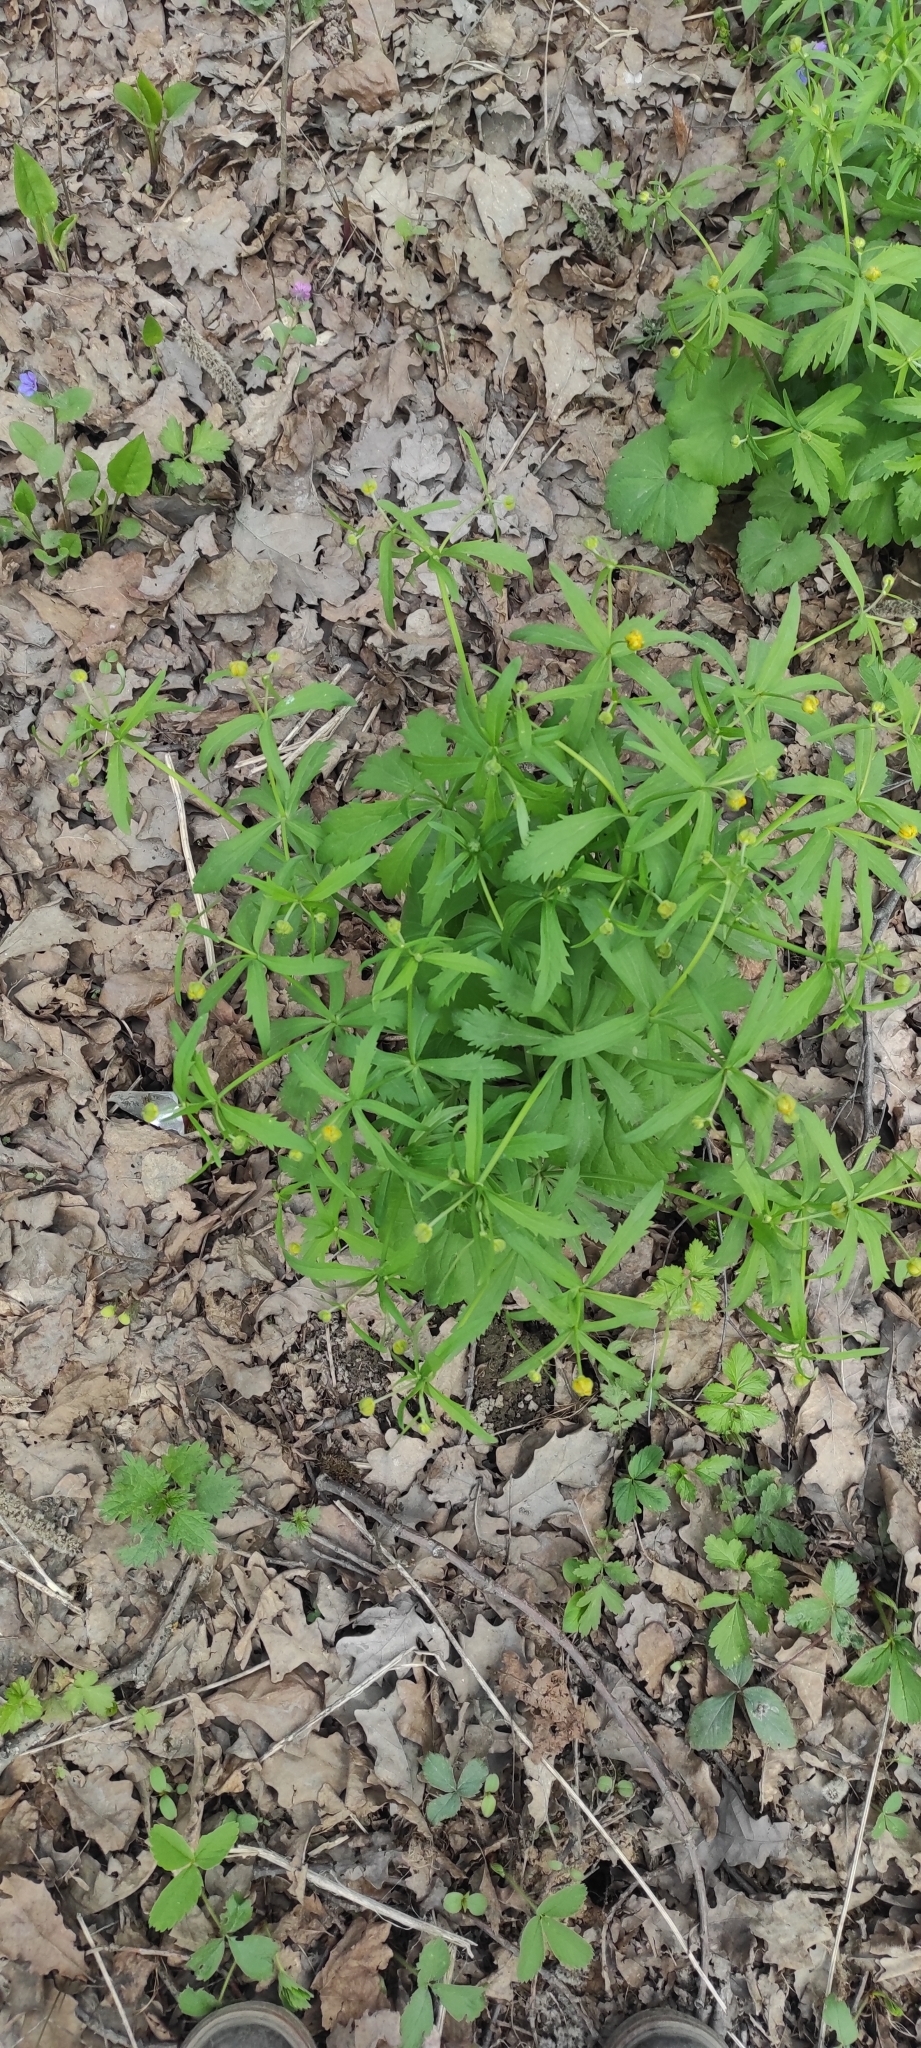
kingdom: Plantae
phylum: Tracheophyta
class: Magnoliopsida
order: Ranunculales
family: Ranunculaceae
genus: Ranunculus
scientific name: Ranunculus fallax
